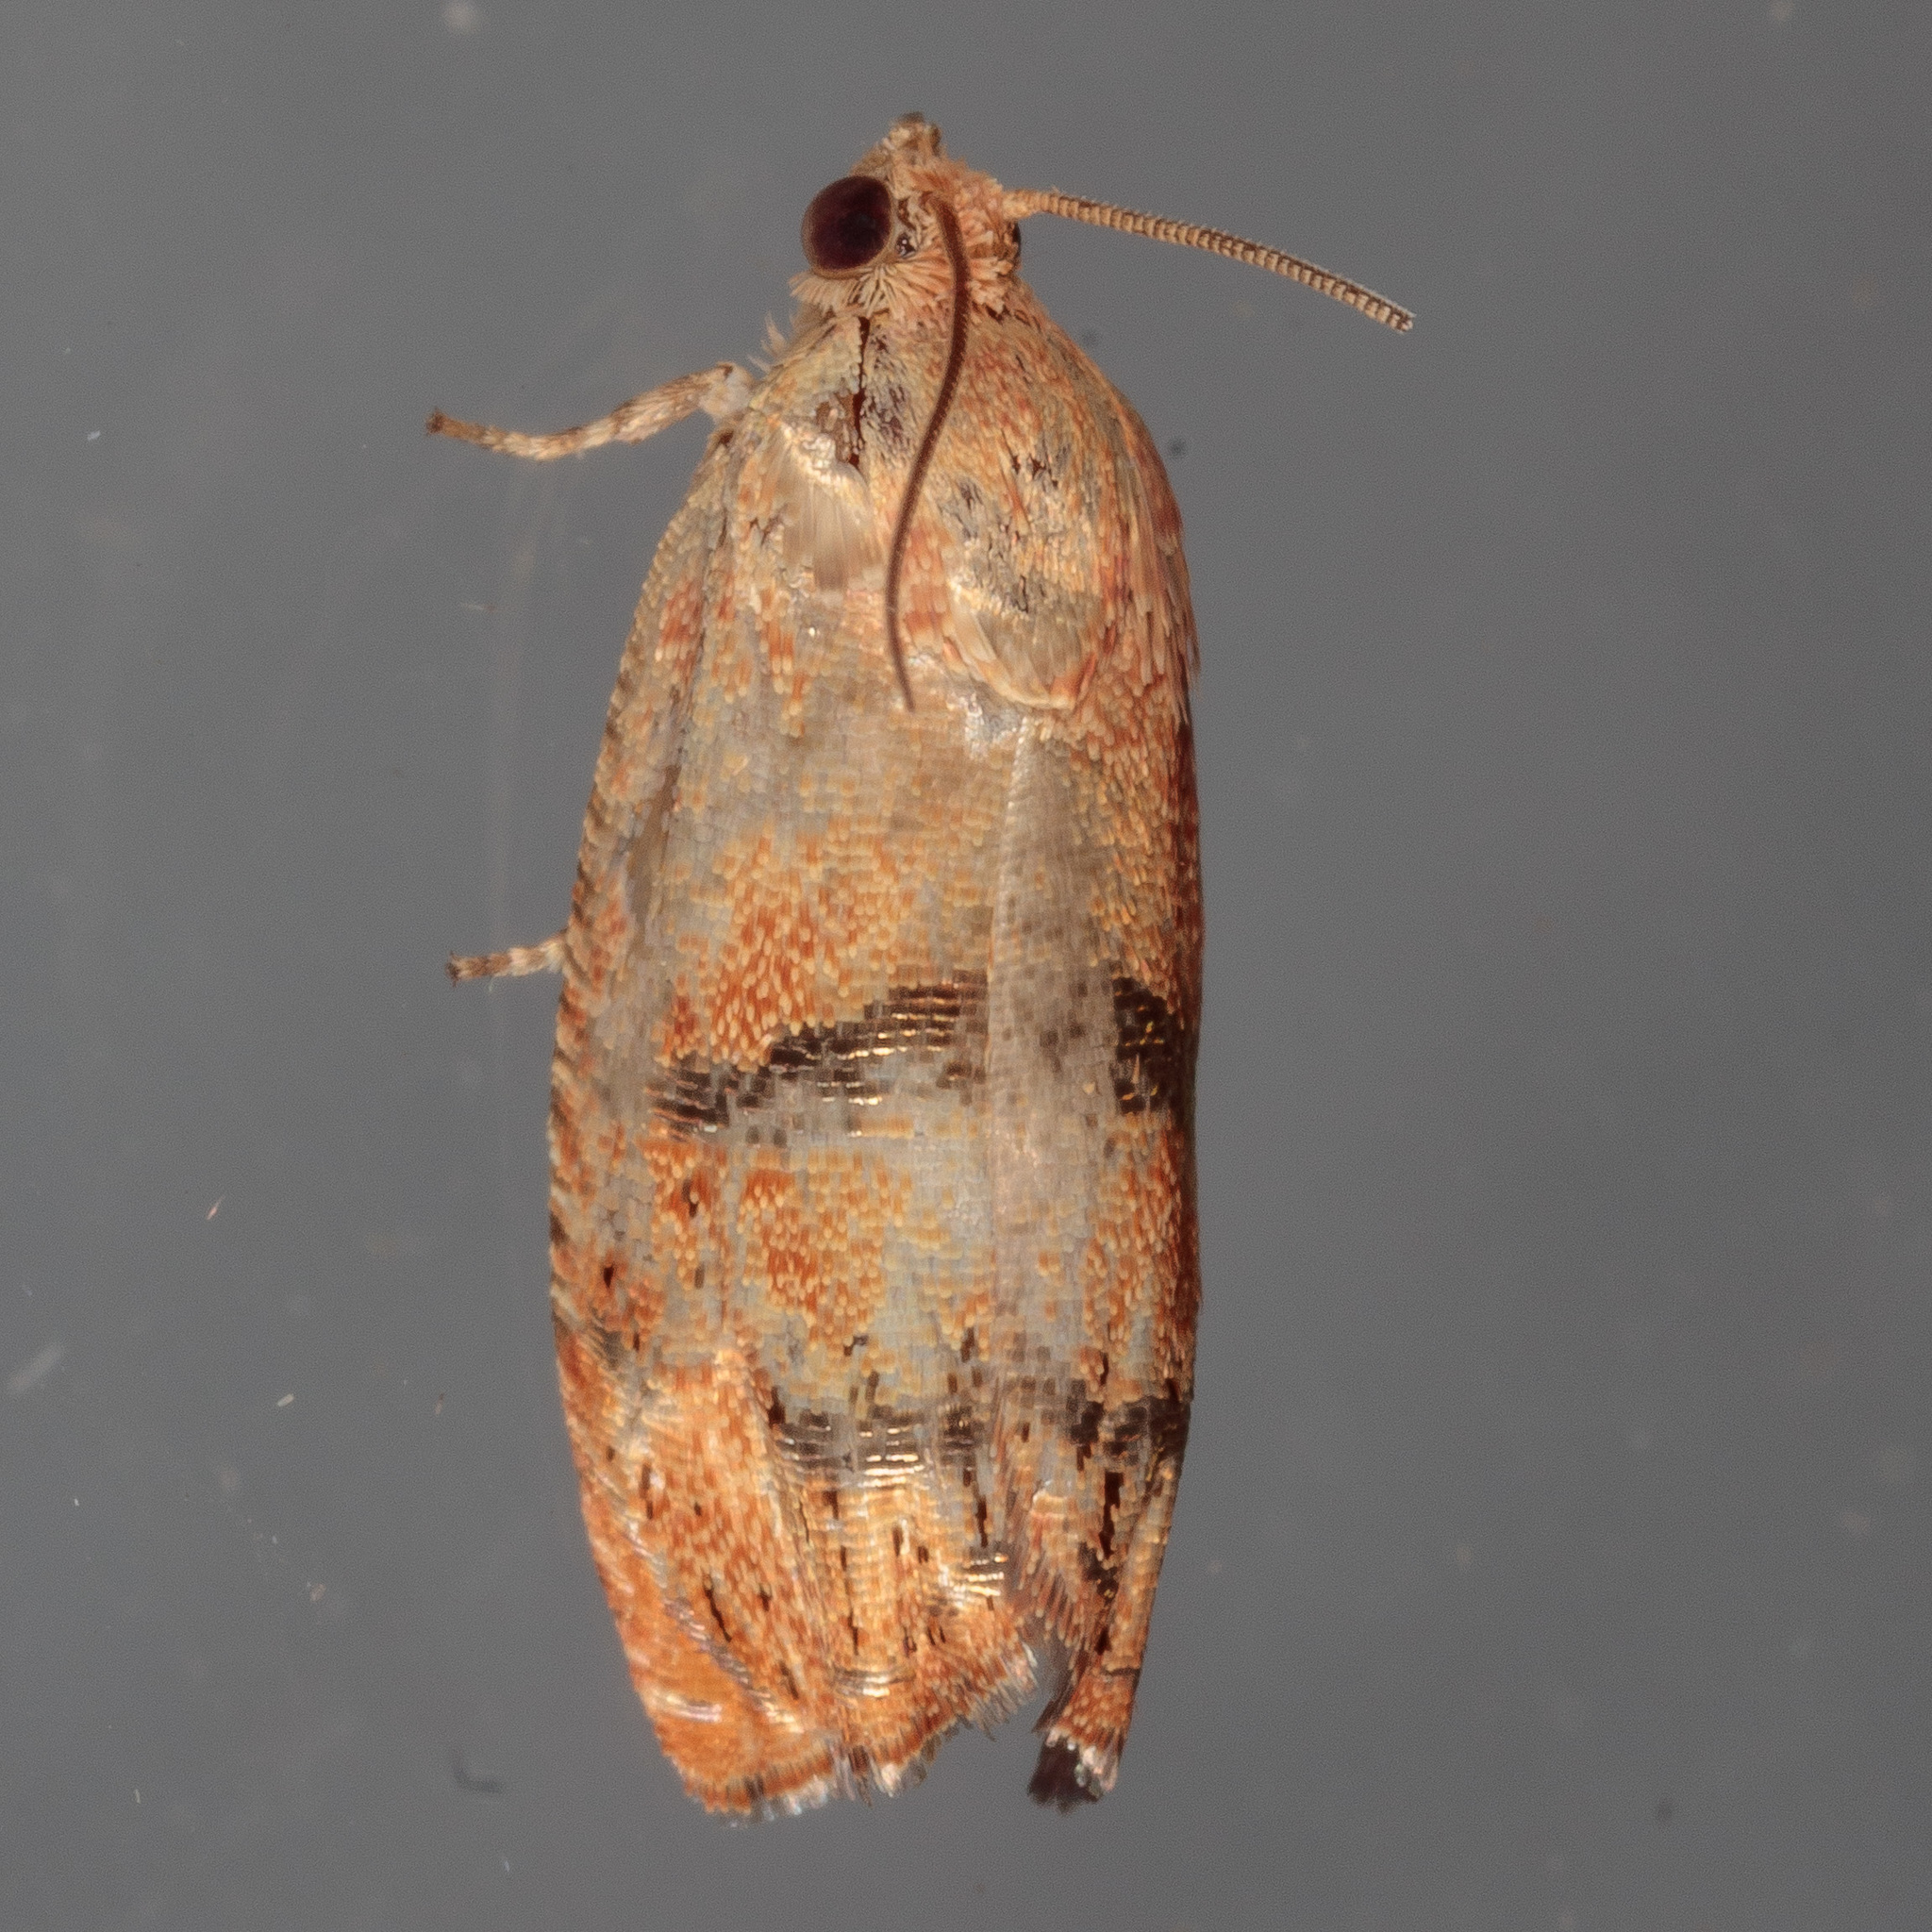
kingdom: Animalia
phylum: Arthropoda
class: Insecta
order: Lepidoptera
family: Tortricidae
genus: Cydia
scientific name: Cydia latiferreana
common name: Filbertworm moth
